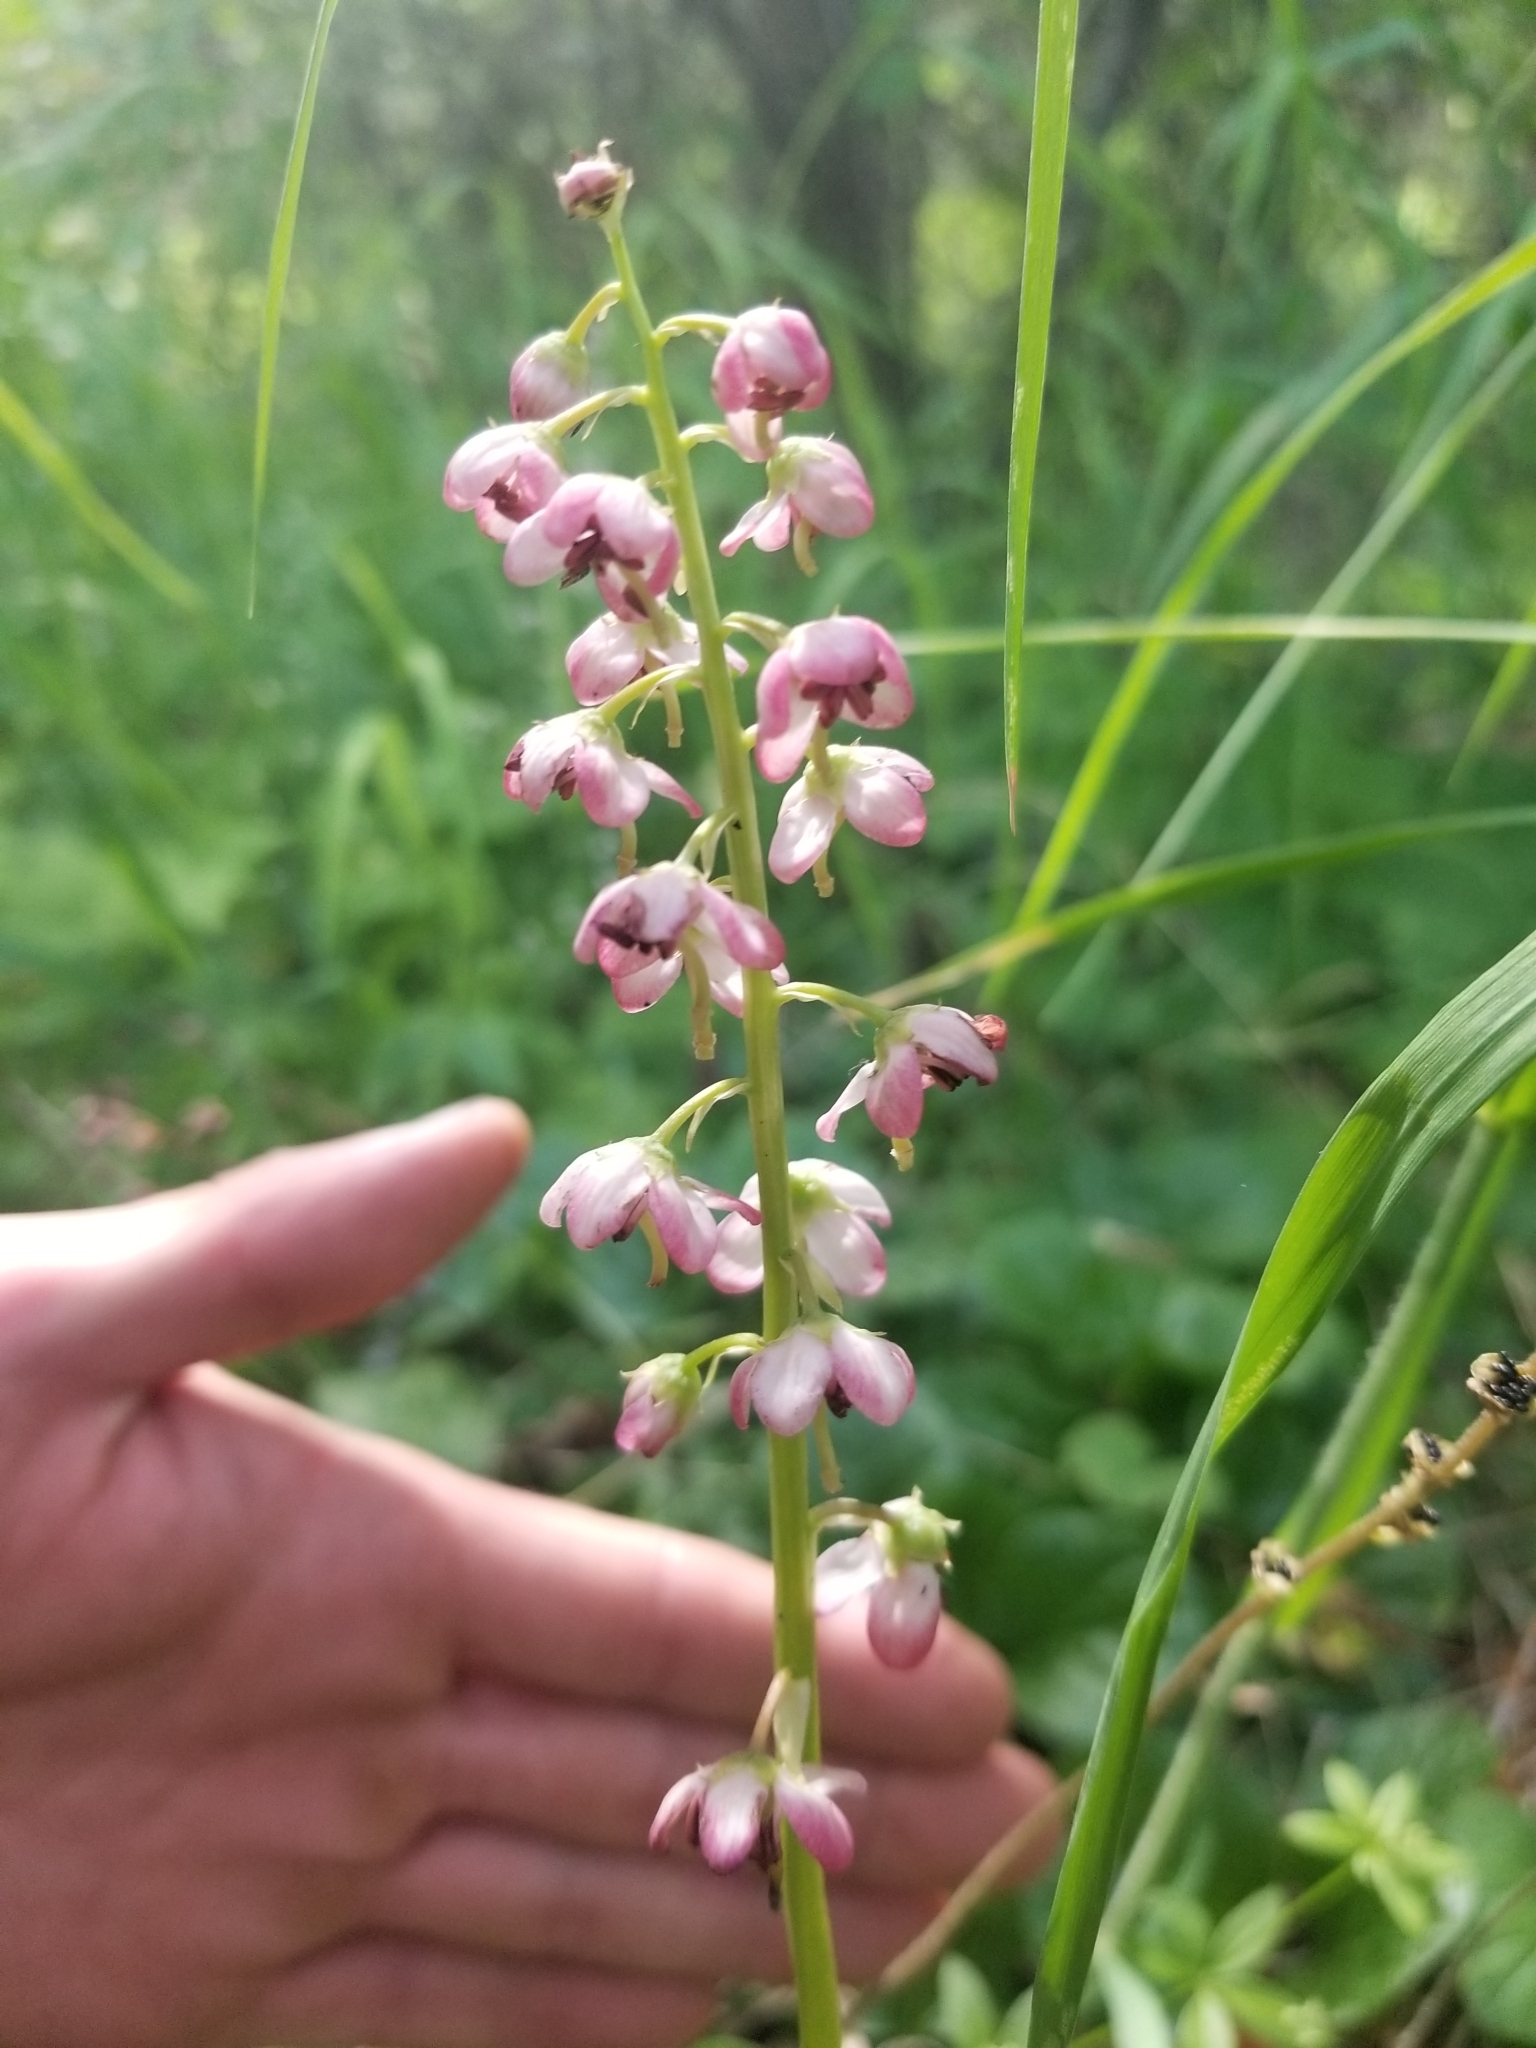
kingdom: Plantae
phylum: Tracheophyta
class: Magnoliopsida
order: Ericales
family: Ericaceae
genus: Pyrola
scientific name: Pyrola asarifolia
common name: Bog wintergreen
